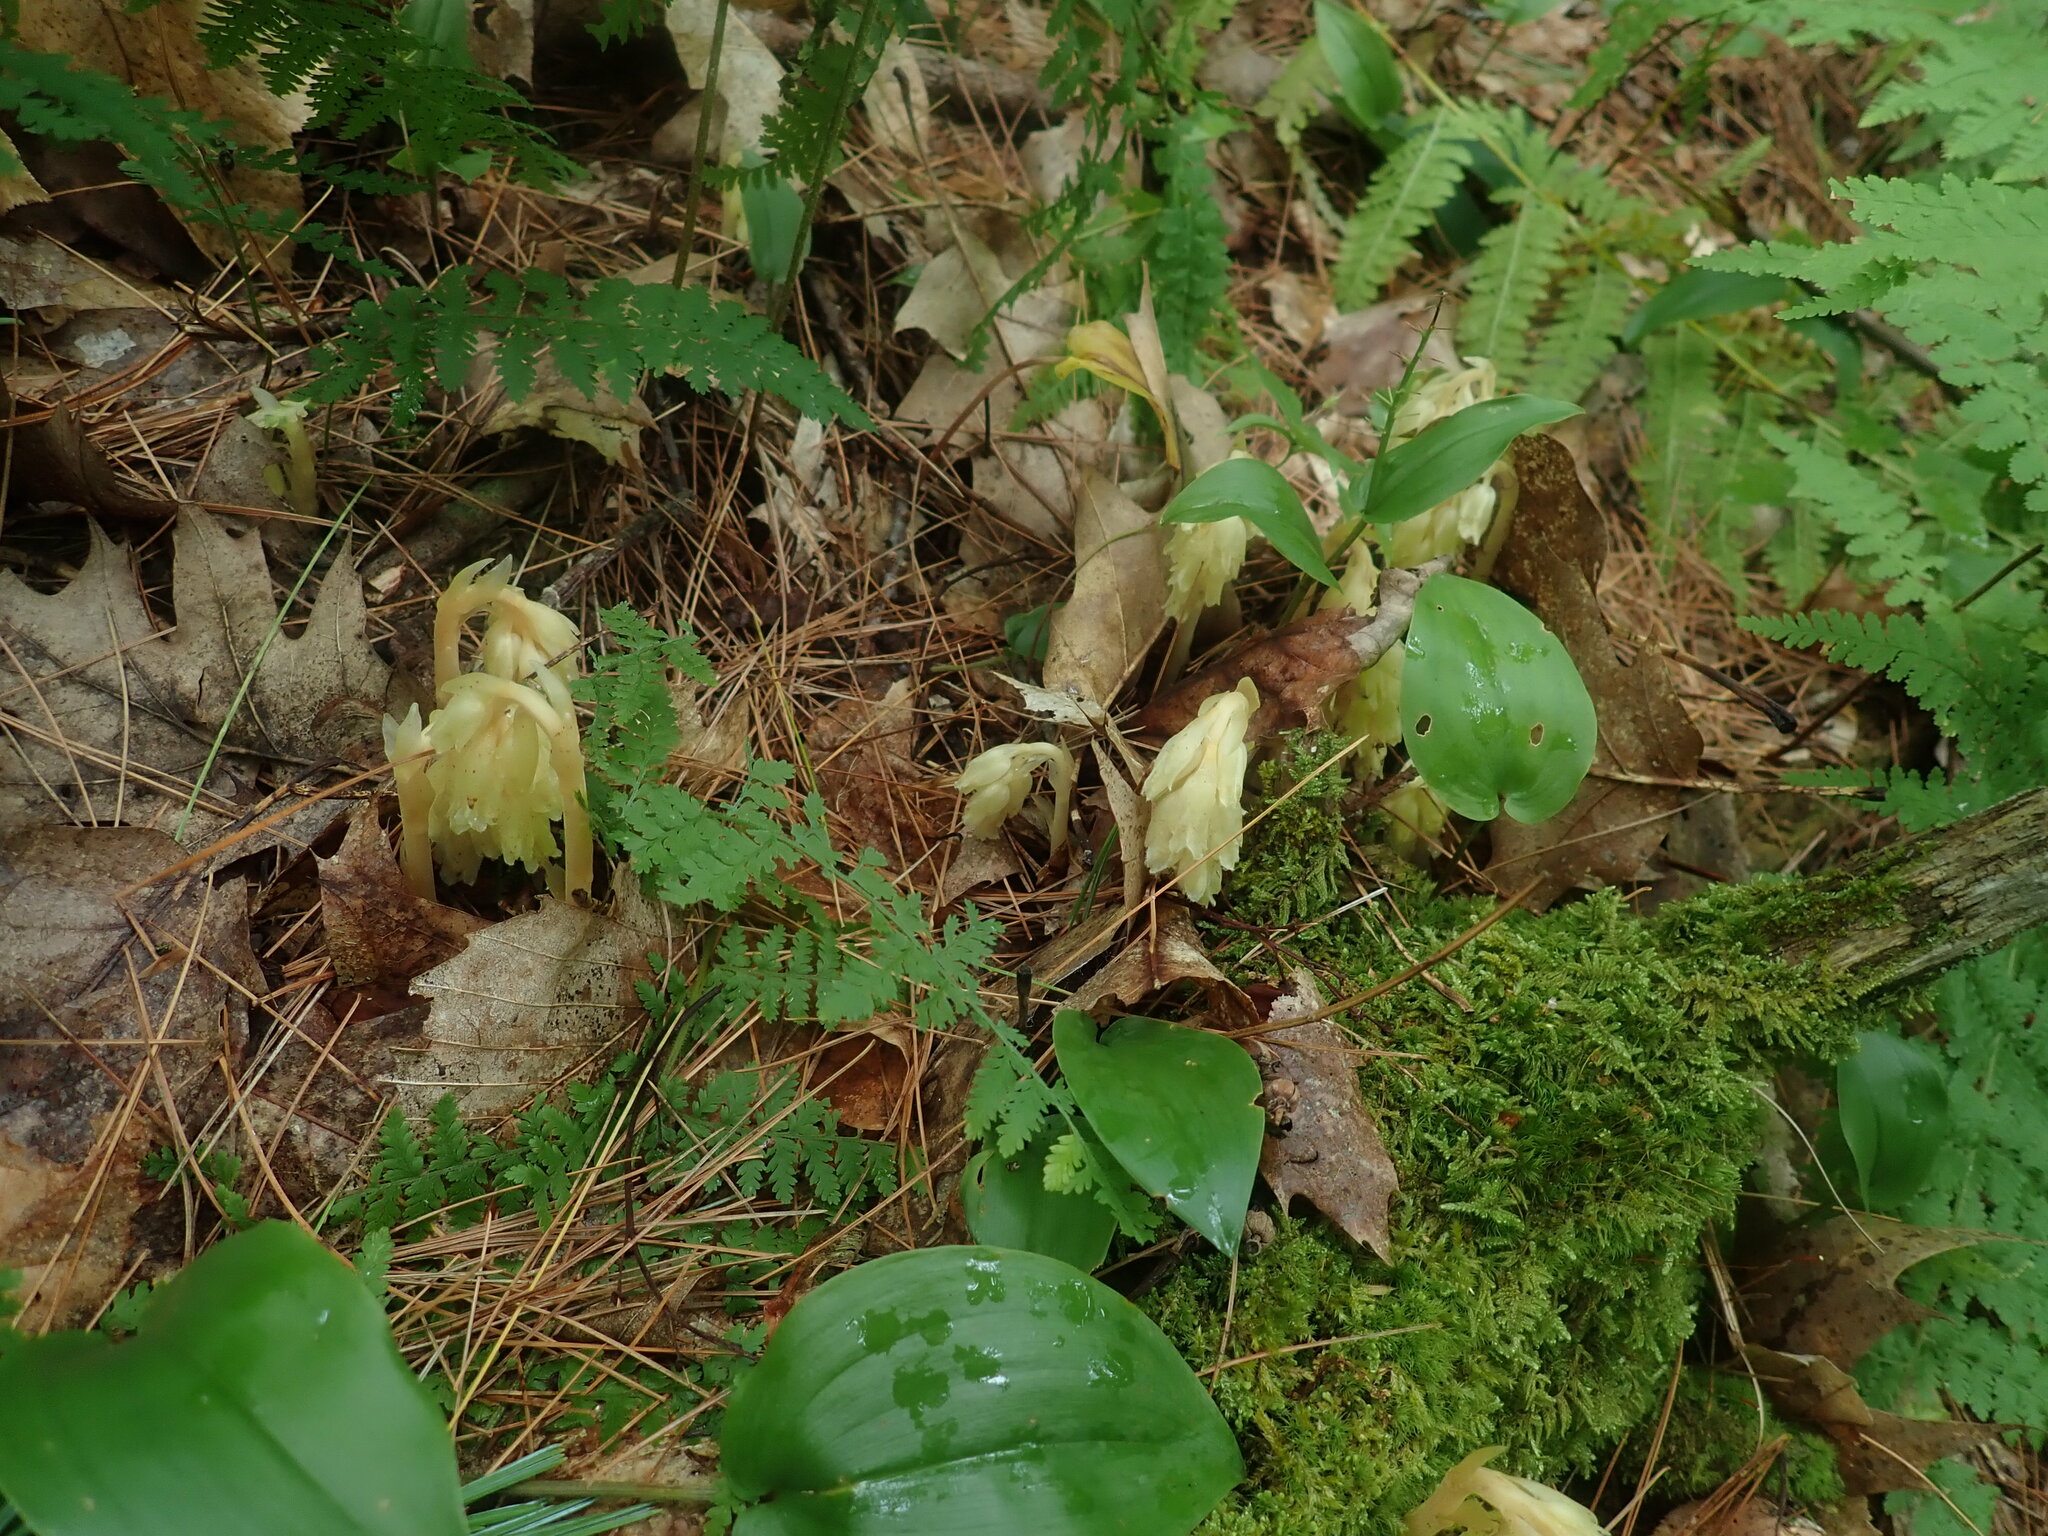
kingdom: Plantae
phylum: Tracheophyta
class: Magnoliopsida
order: Ericales
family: Ericaceae
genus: Hypopitys
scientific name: Hypopitys monotropa
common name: Yellow bird's-nest
